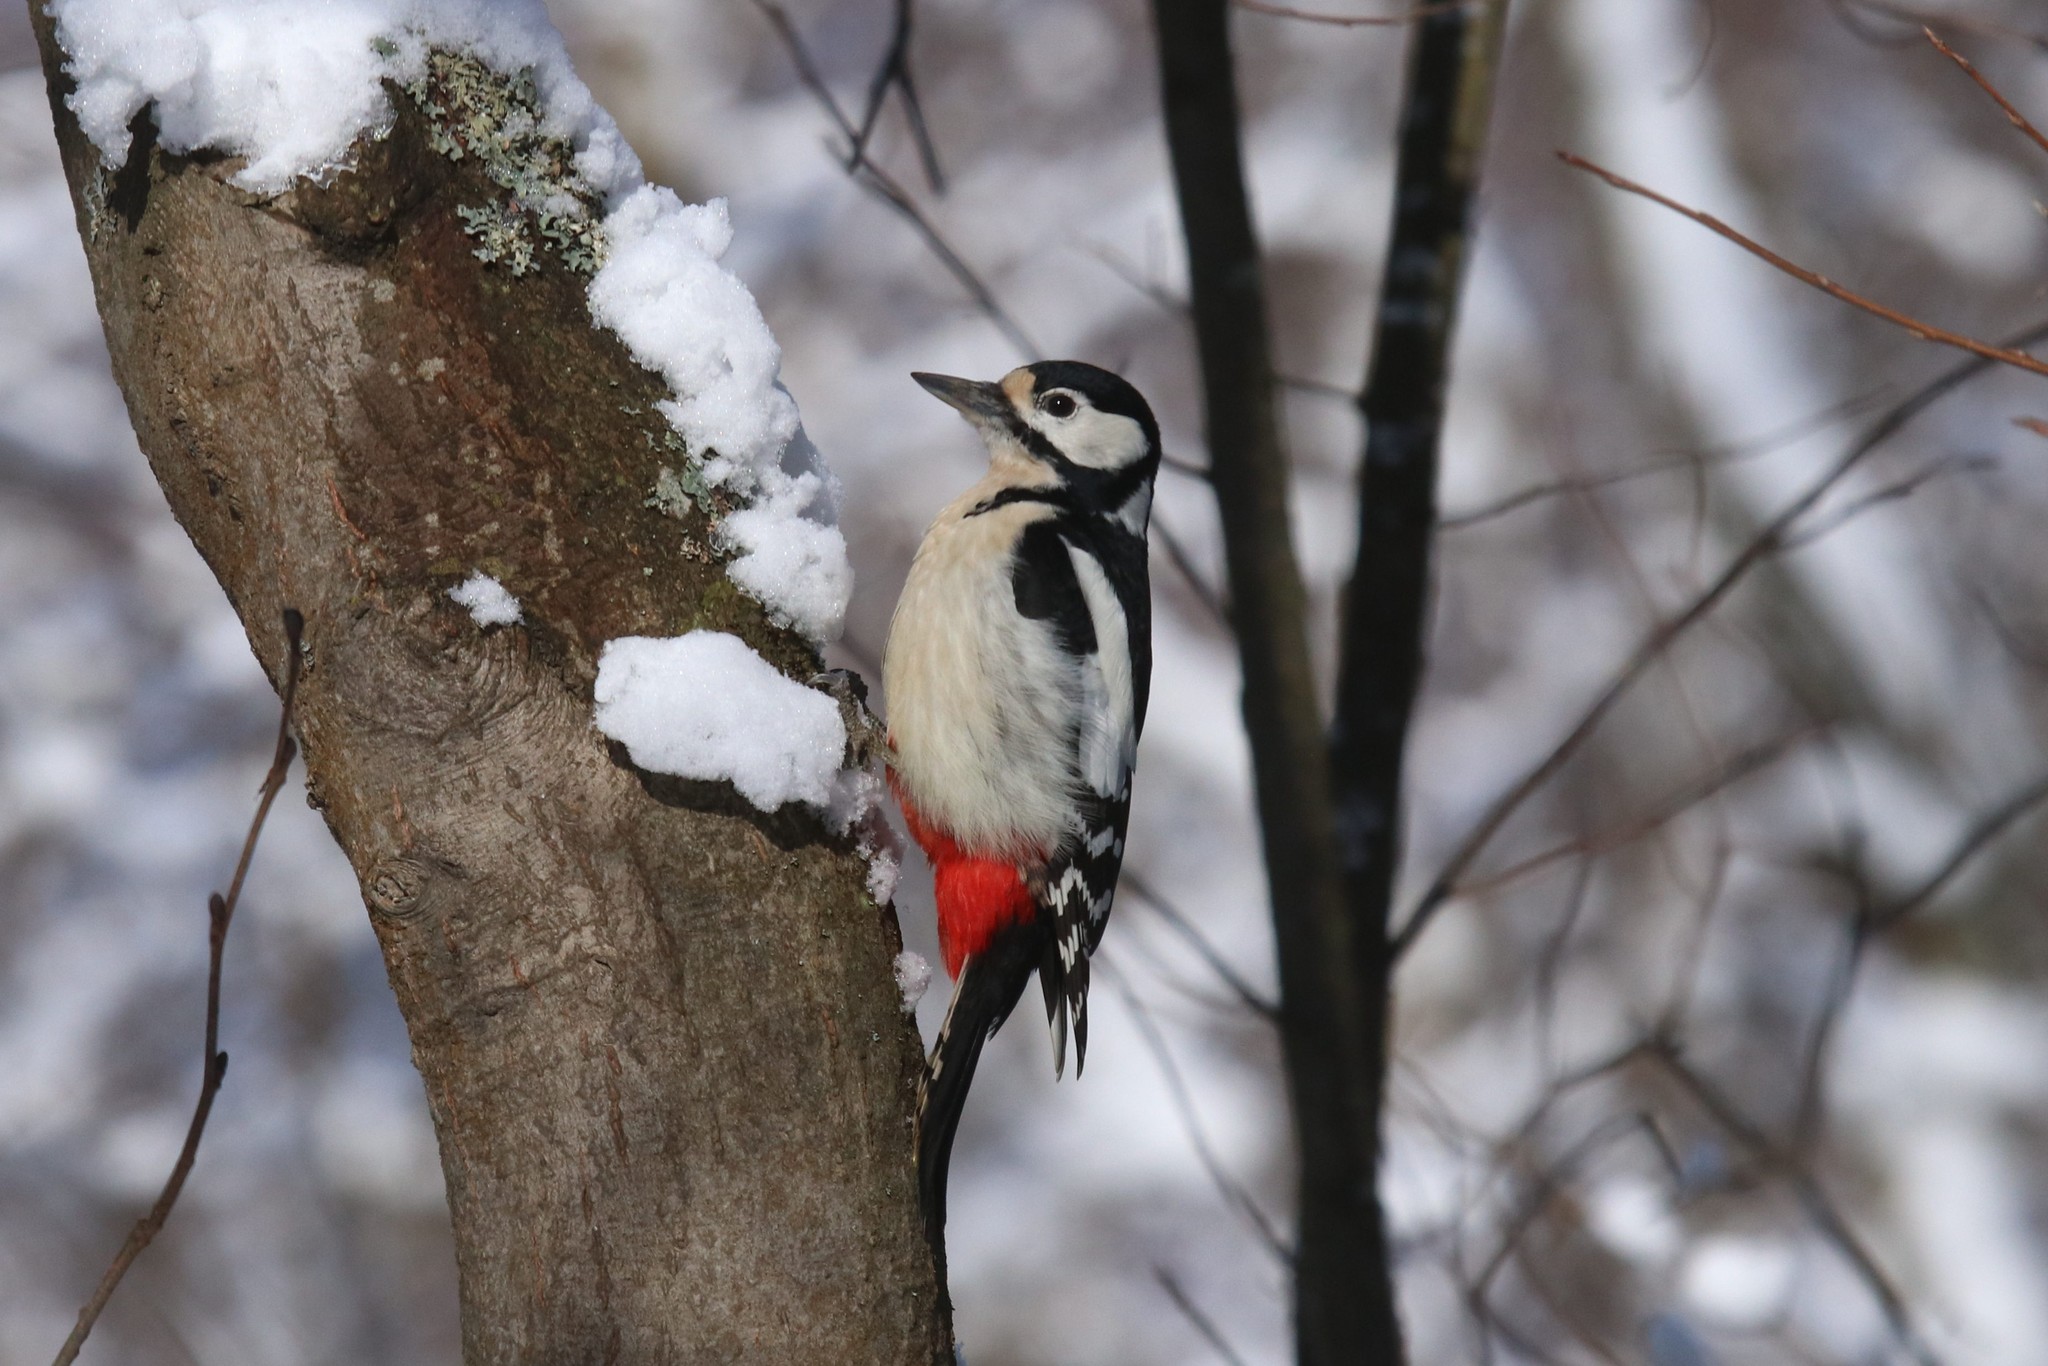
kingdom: Animalia
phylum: Chordata
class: Aves
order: Piciformes
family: Picidae
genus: Dendrocopos
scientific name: Dendrocopos major
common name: Great spotted woodpecker
